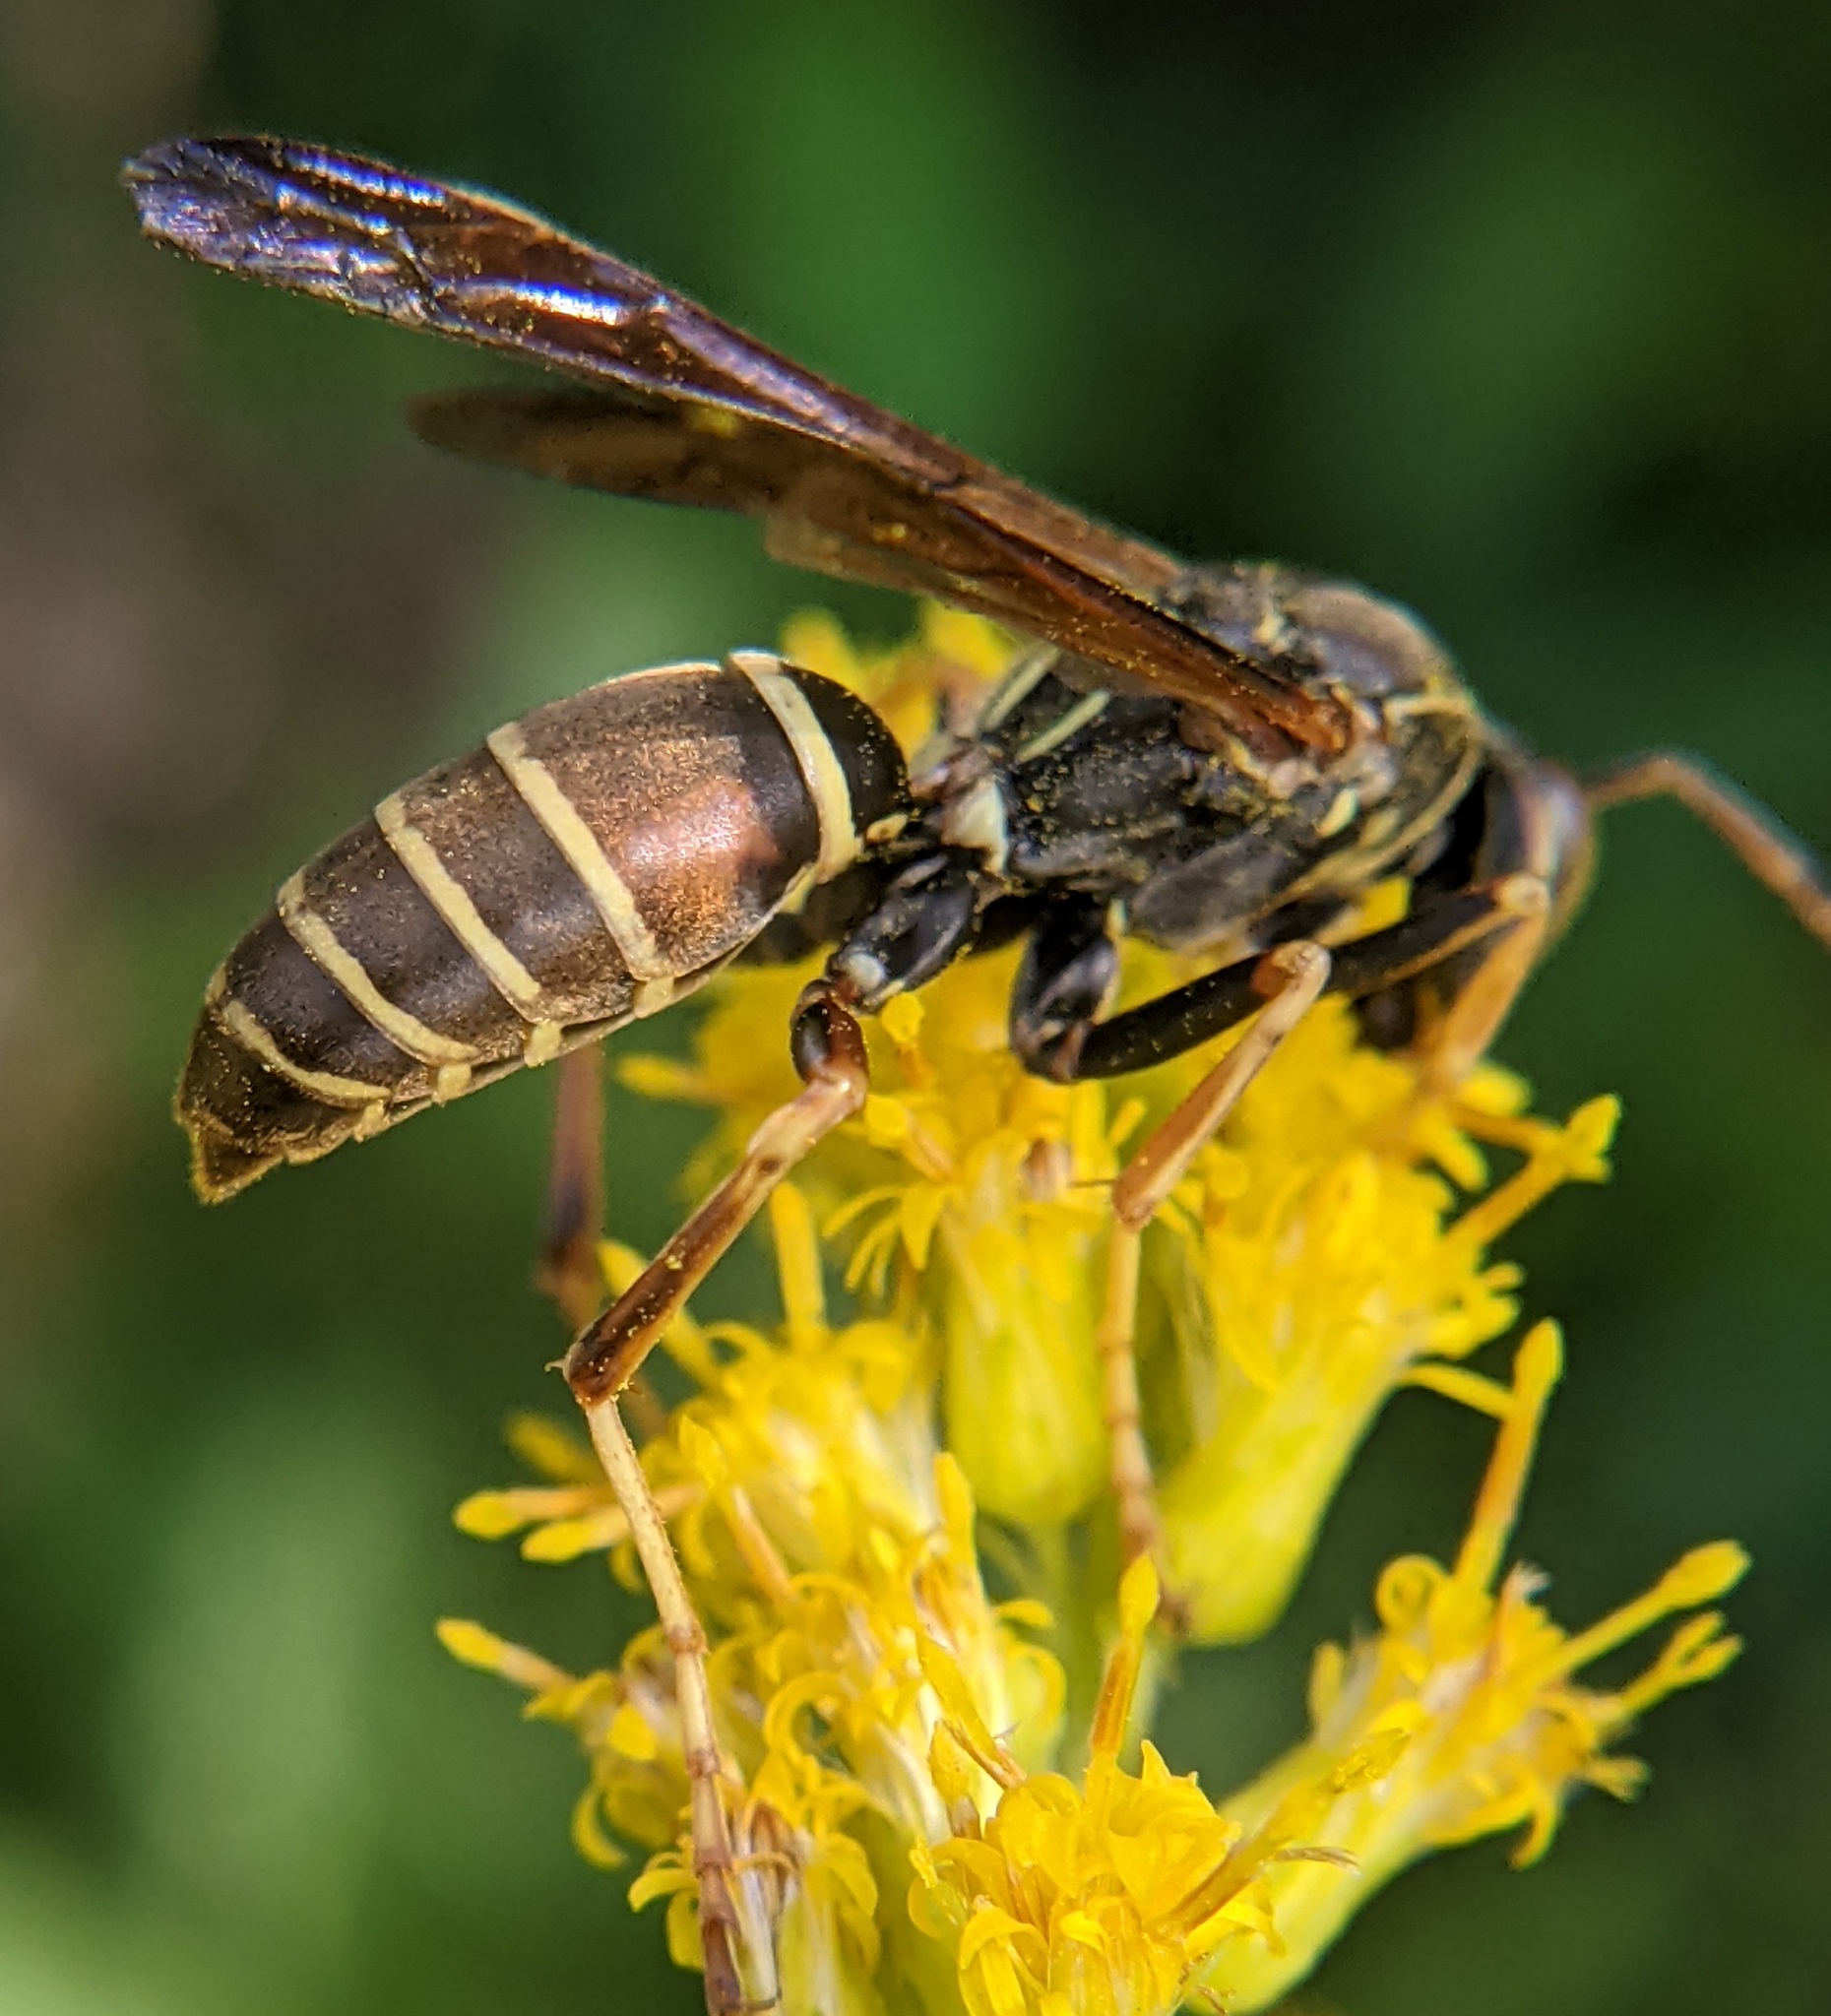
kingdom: Animalia
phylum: Arthropoda
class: Insecta
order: Hymenoptera
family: Eumenidae
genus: Polistes
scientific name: Polistes fuscatus
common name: Dark paper wasp
